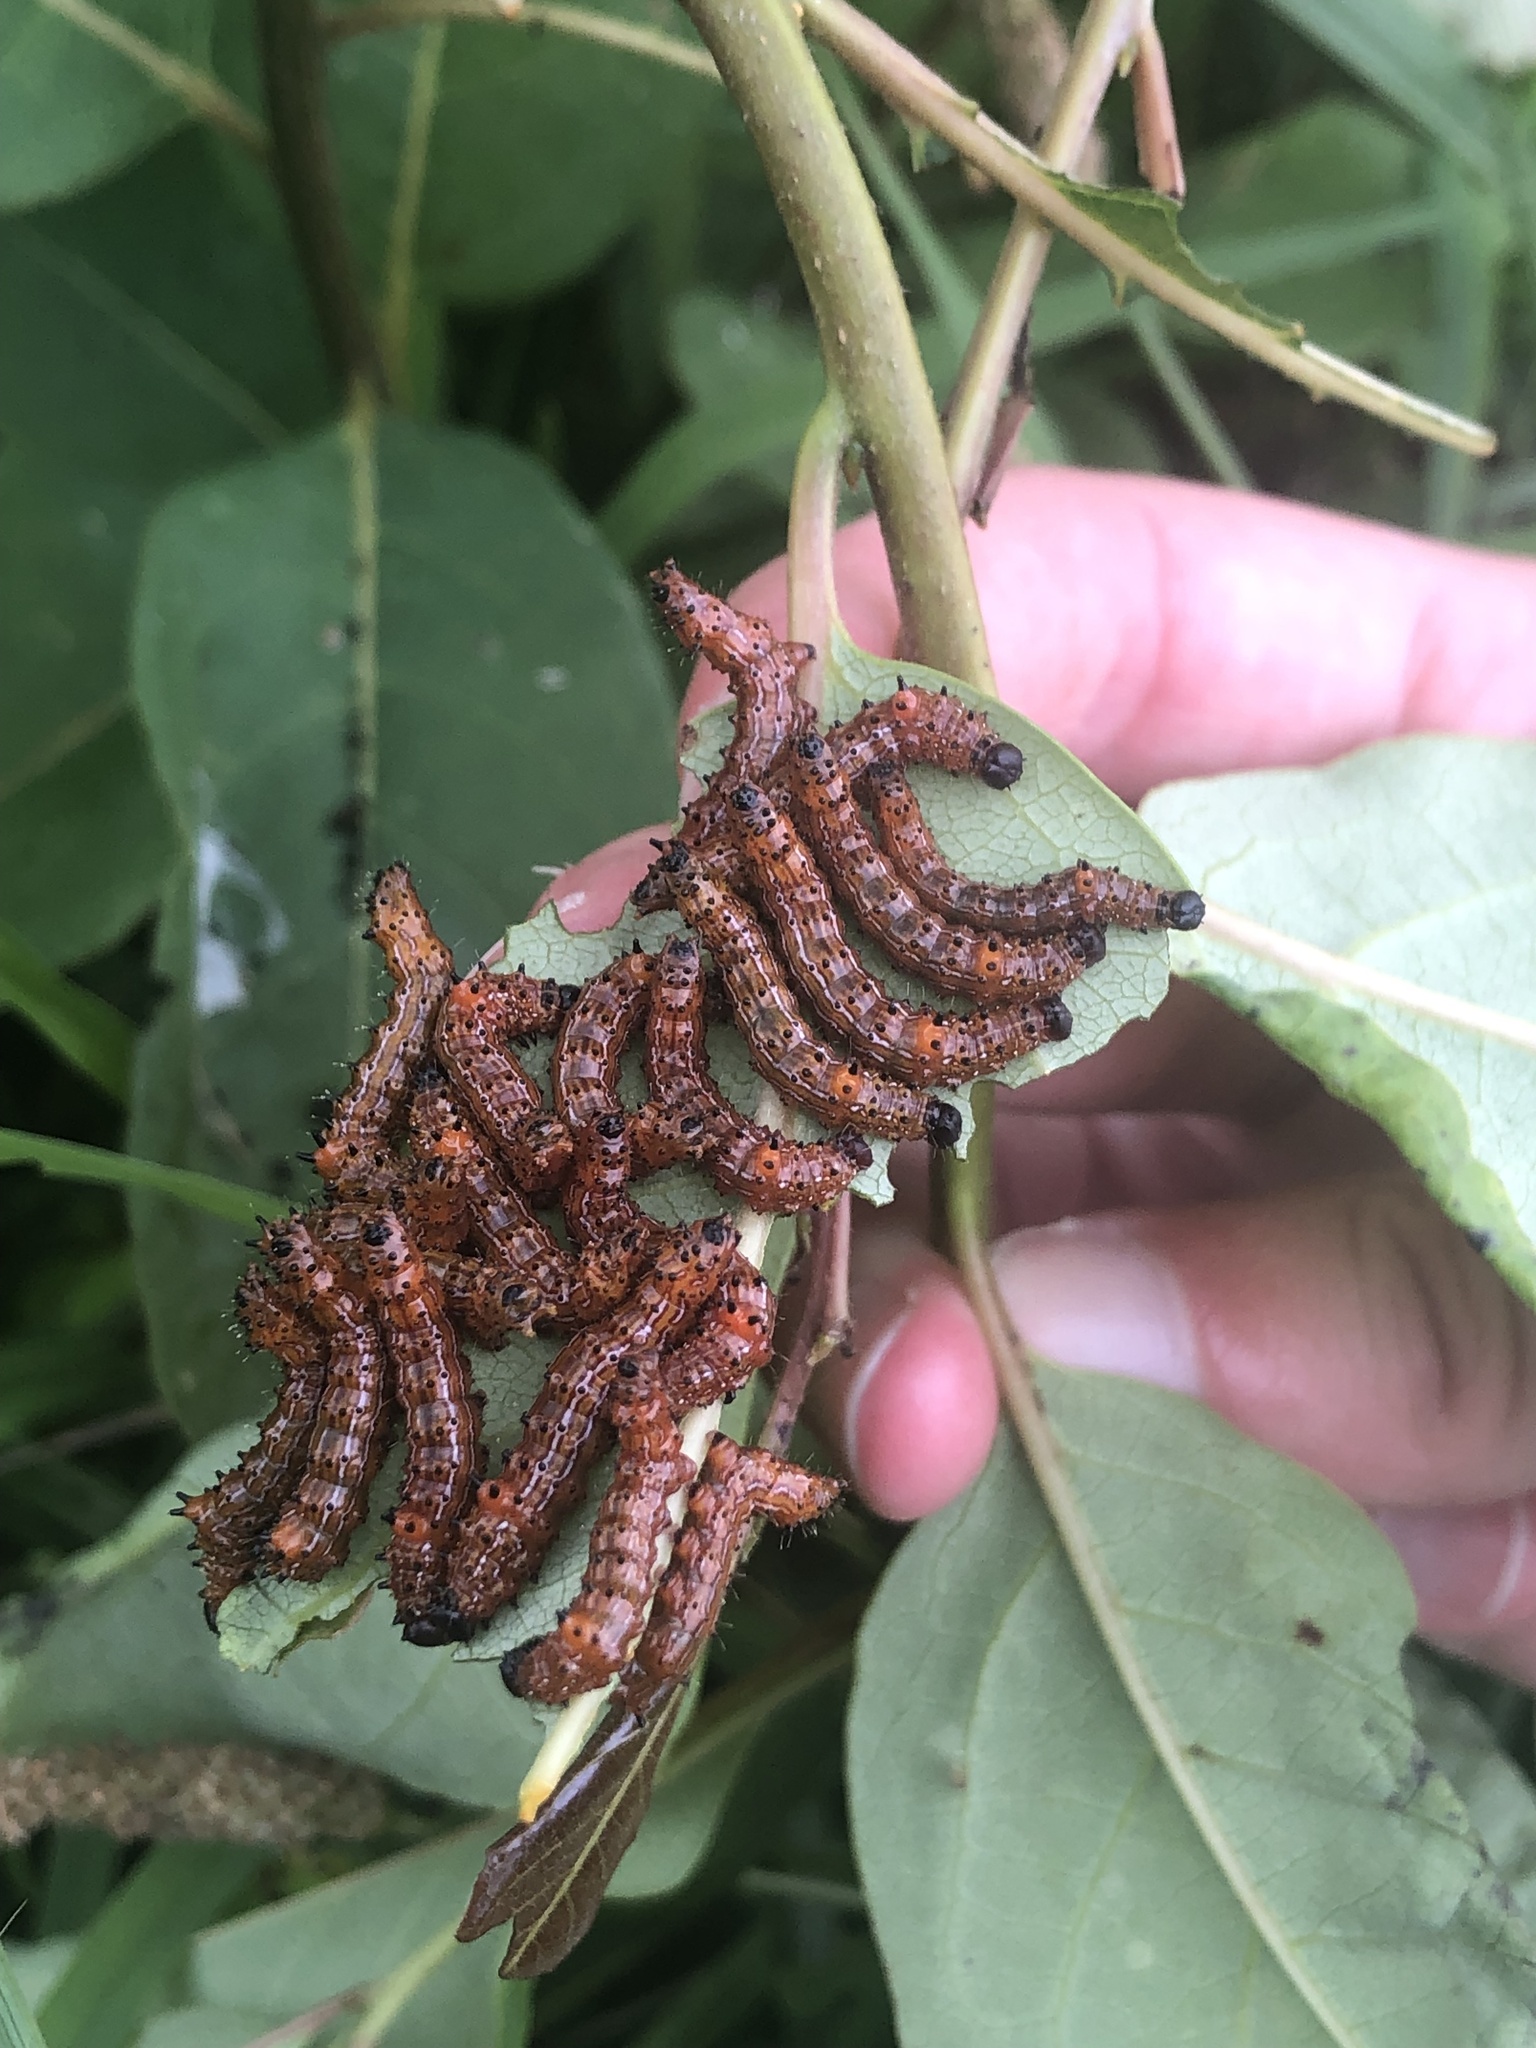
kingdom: Animalia
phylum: Arthropoda
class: Insecta
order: Lepidoptera
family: Notodontidae
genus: Schizura
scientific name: Schizura
